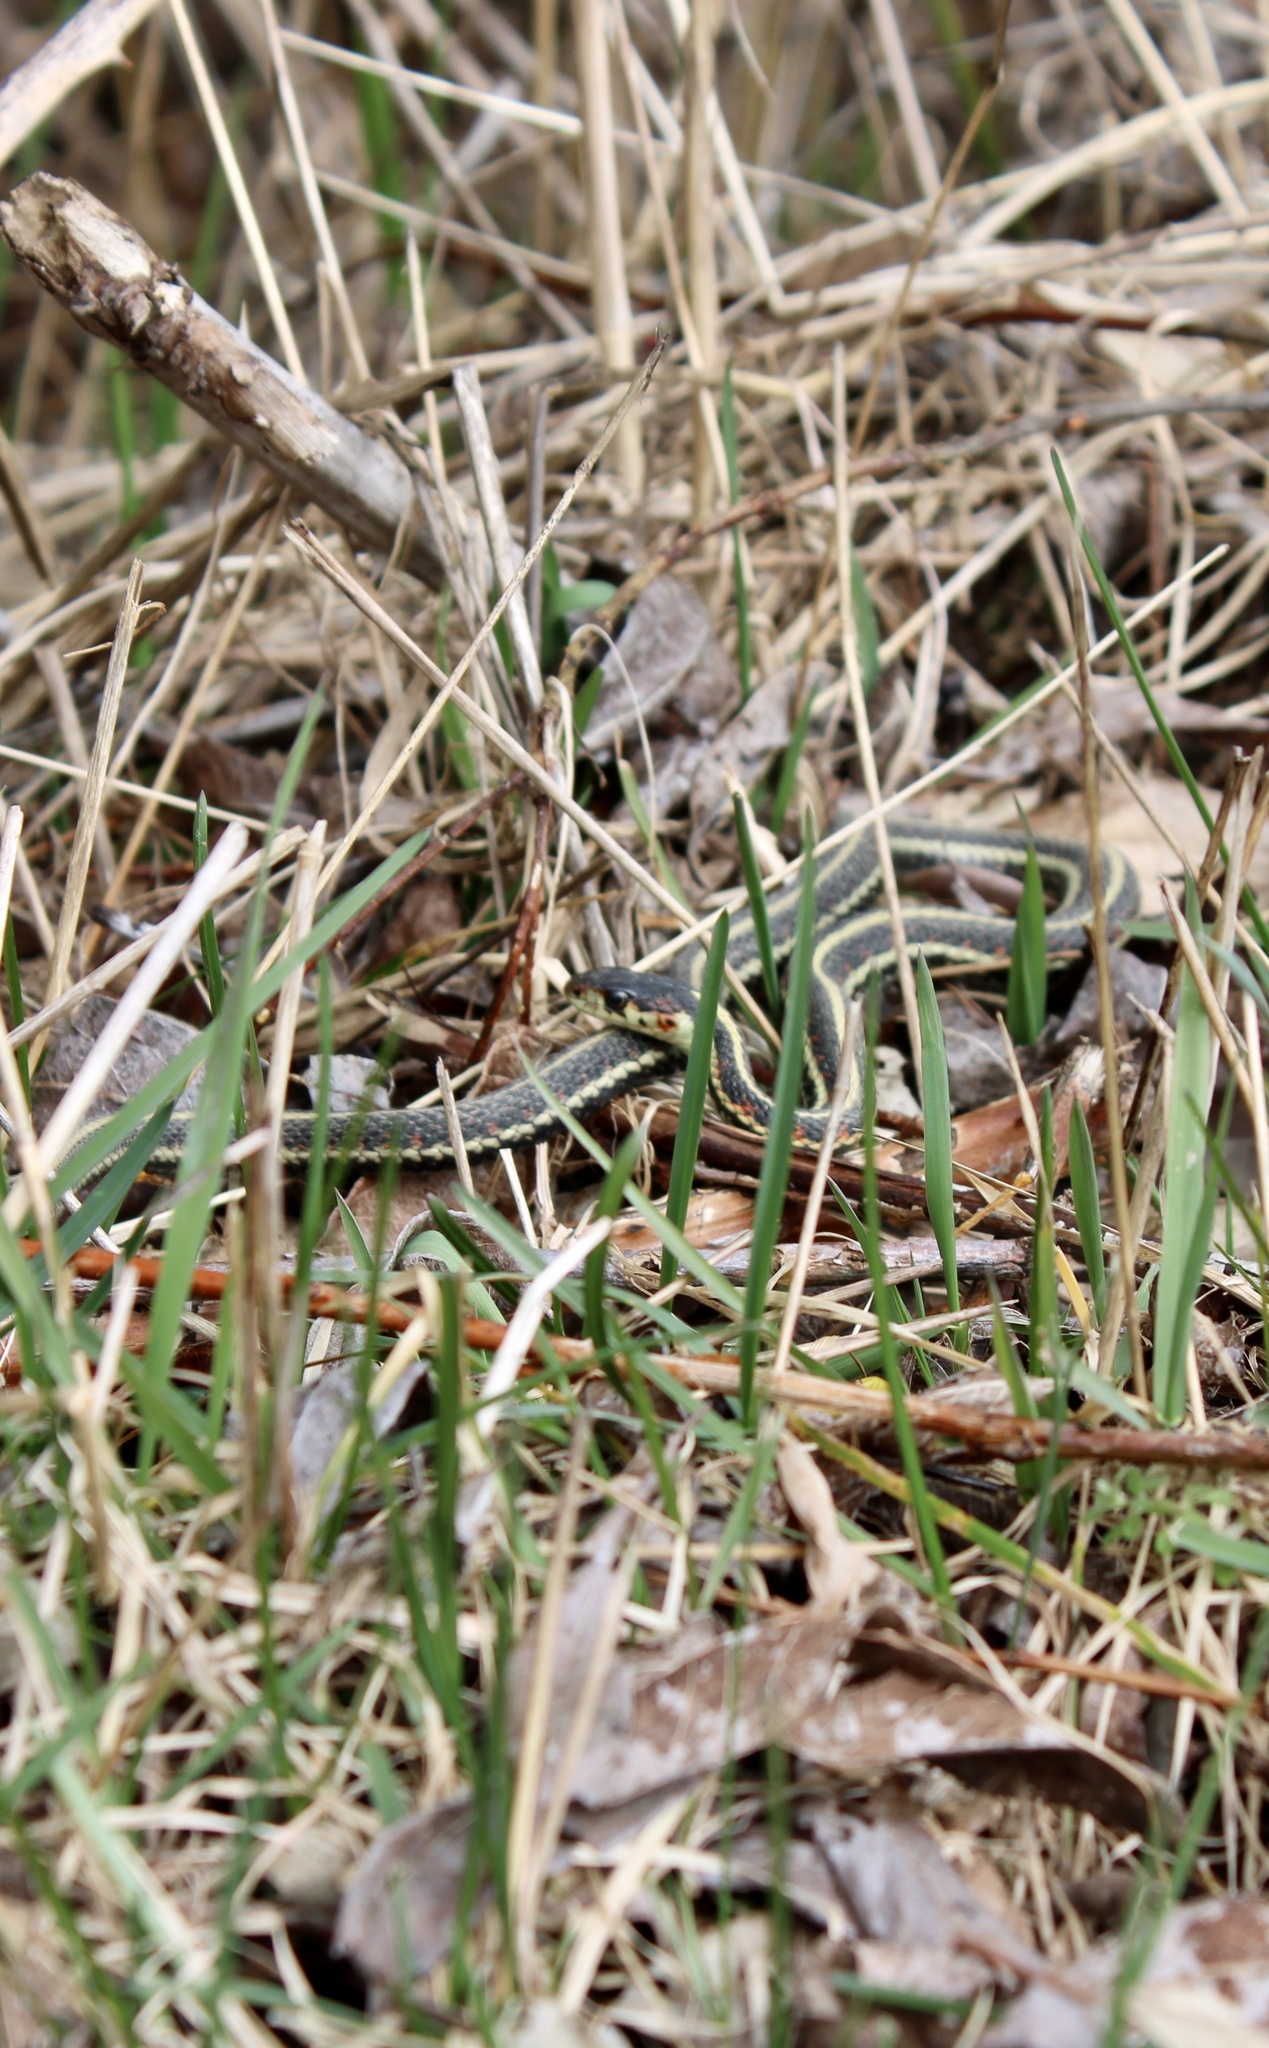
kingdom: Animalia
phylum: Chordata
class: Squamata
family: Colubridae
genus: Thamnophis
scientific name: Thamnophis sirtalis
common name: Common garter snake
